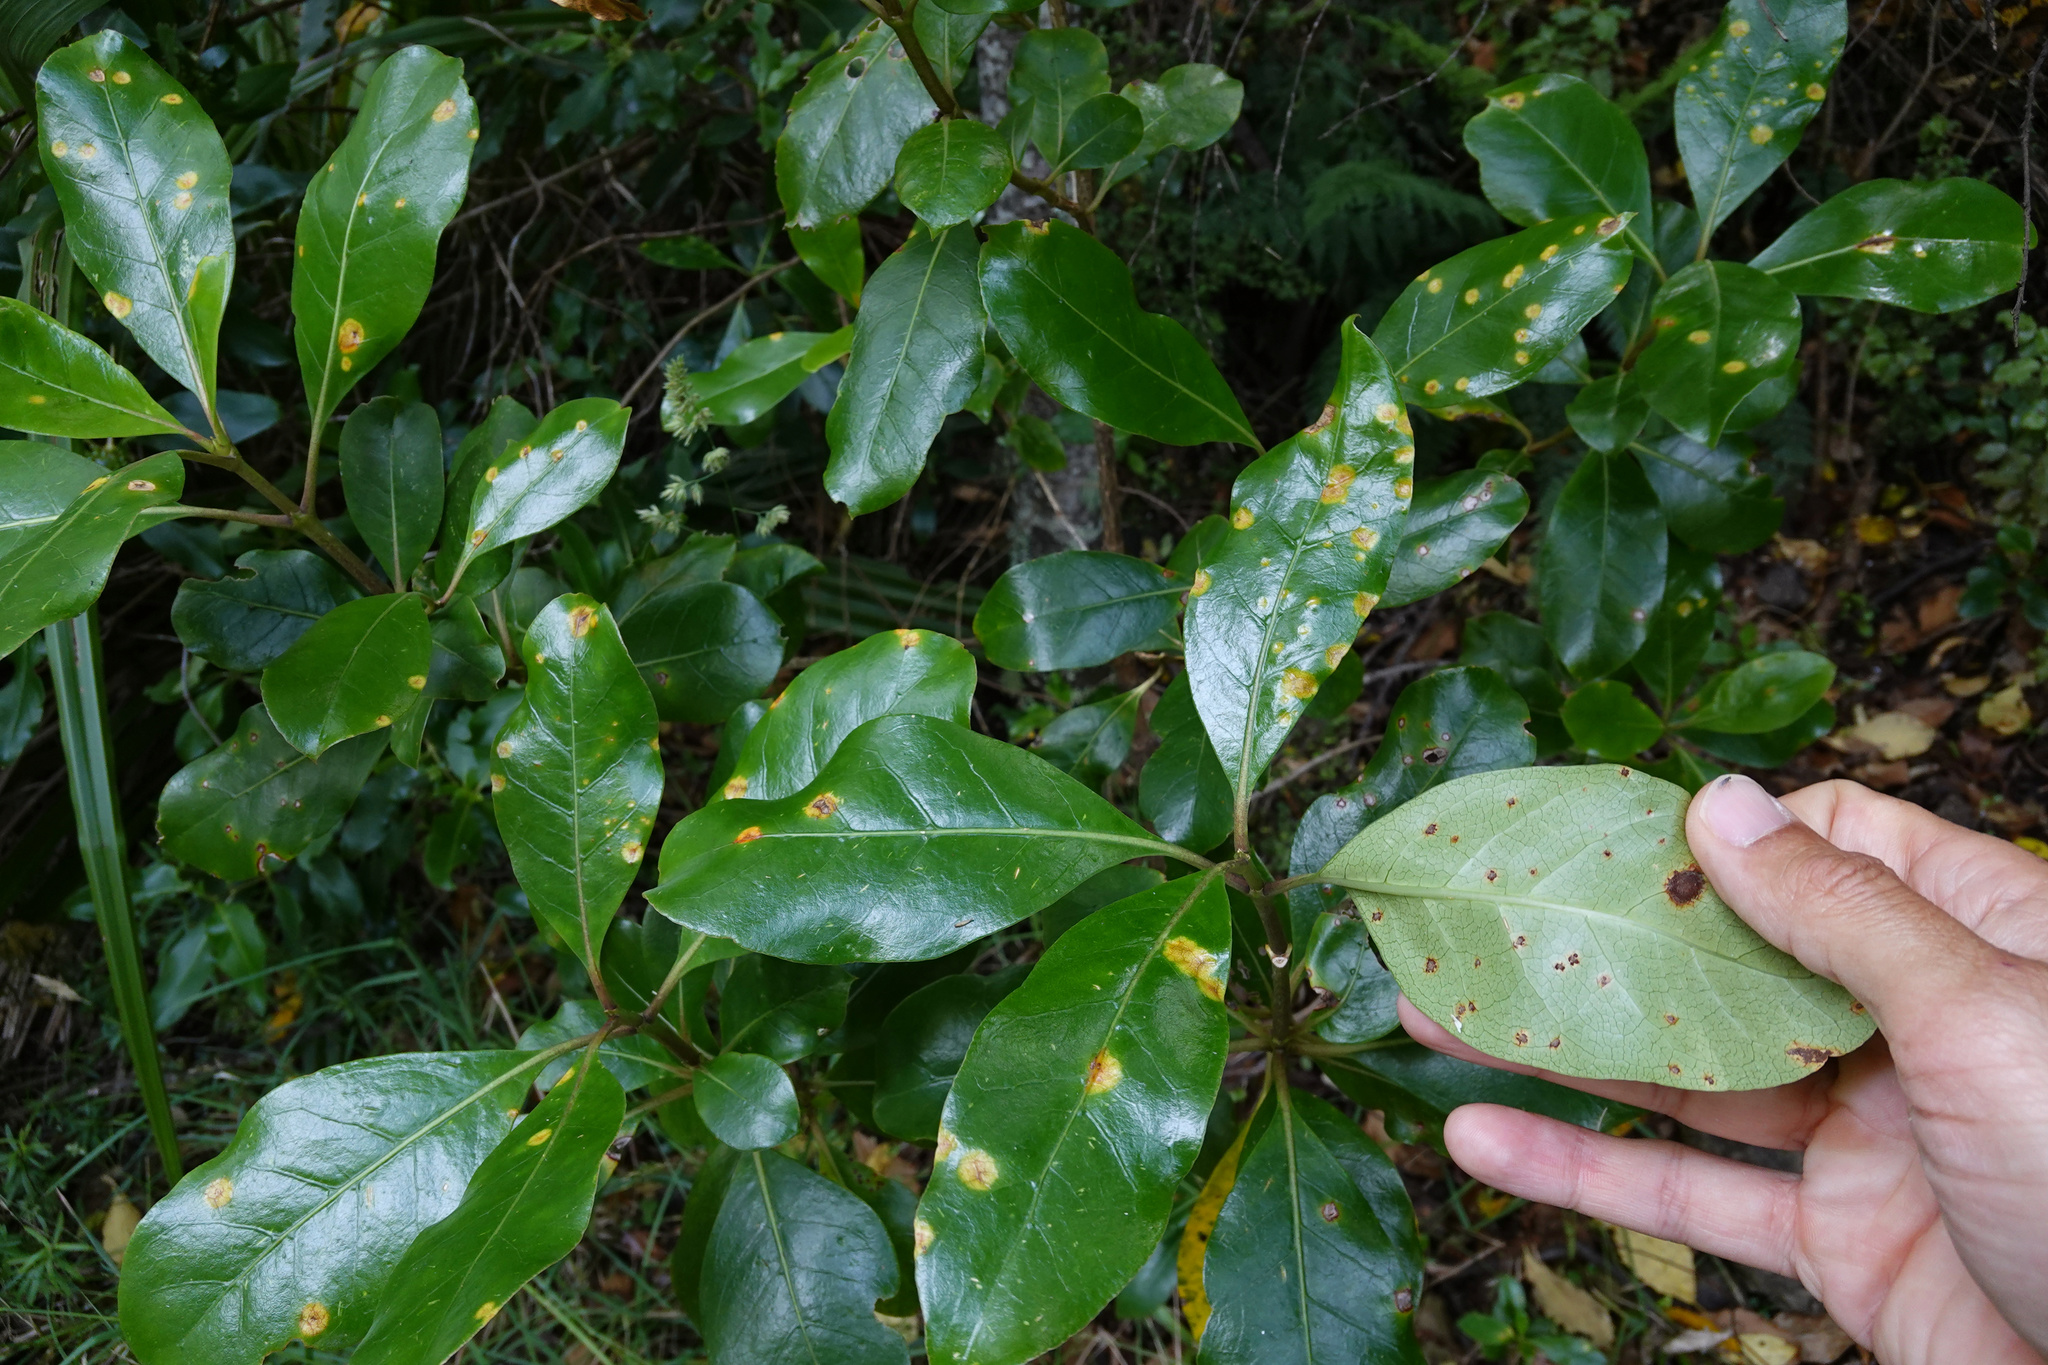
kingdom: Fungi
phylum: Basidiomycota
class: Pucciniomycetes
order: Pucciniales
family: Pucciniaceae
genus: Puccinia
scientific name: Puccinia coprosmae
